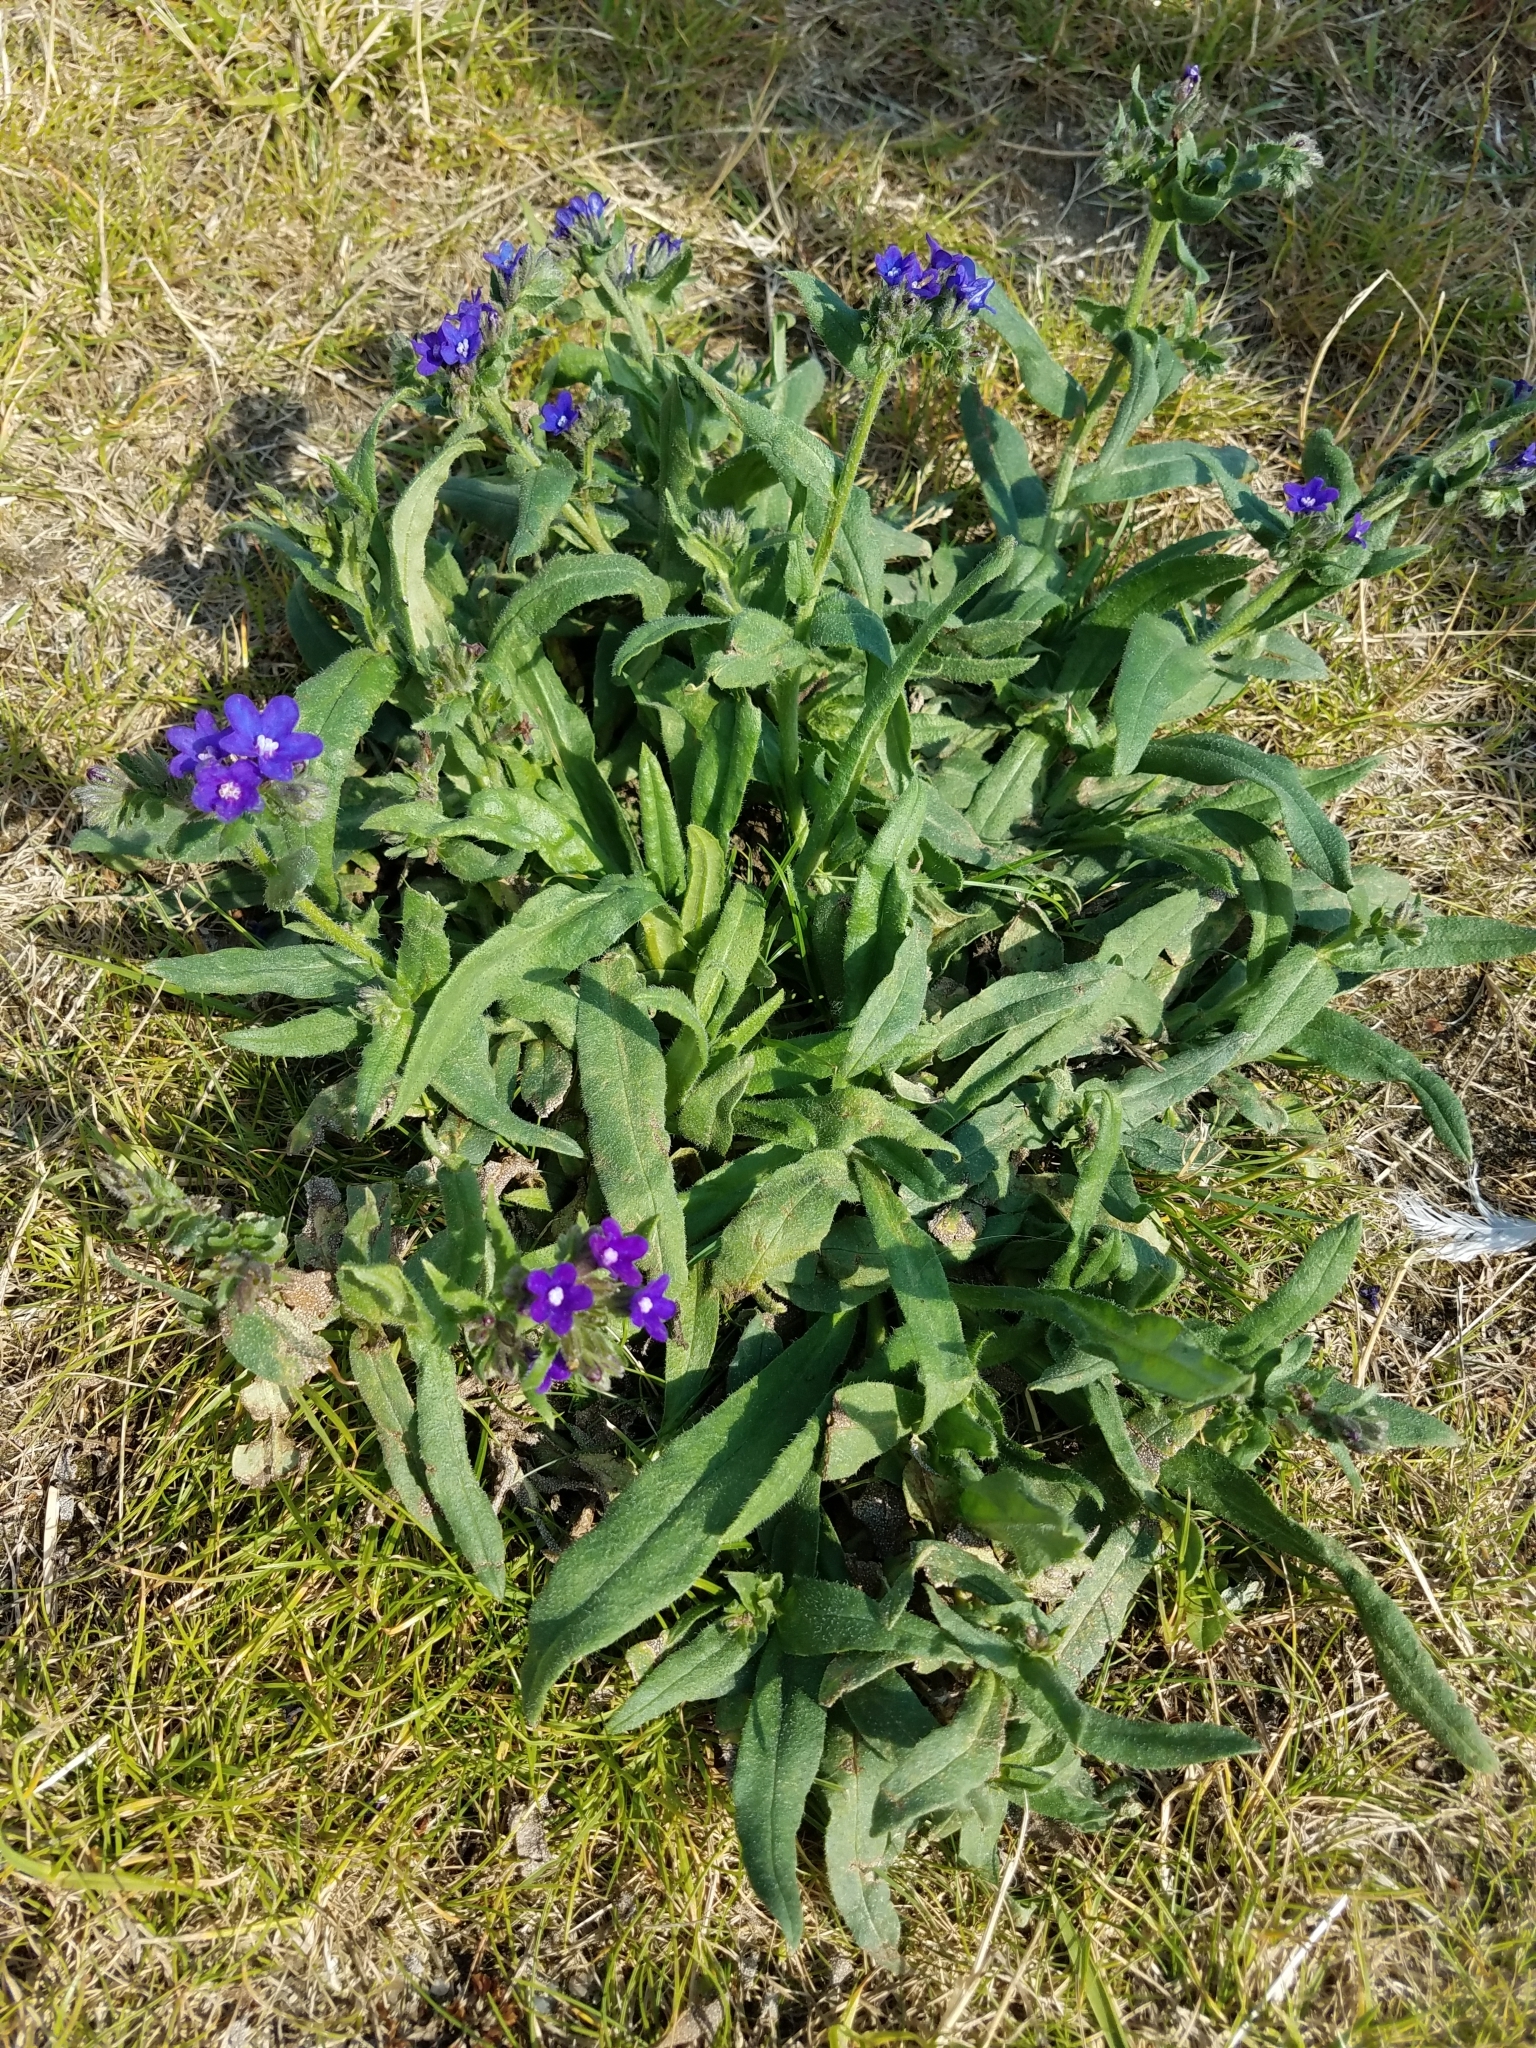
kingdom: Plantae
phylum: Tracheophyta
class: Magnoliopsida
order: Boraginales
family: Boraginaceae
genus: Anchusa
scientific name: Anchusa officinalis
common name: Alkanet
